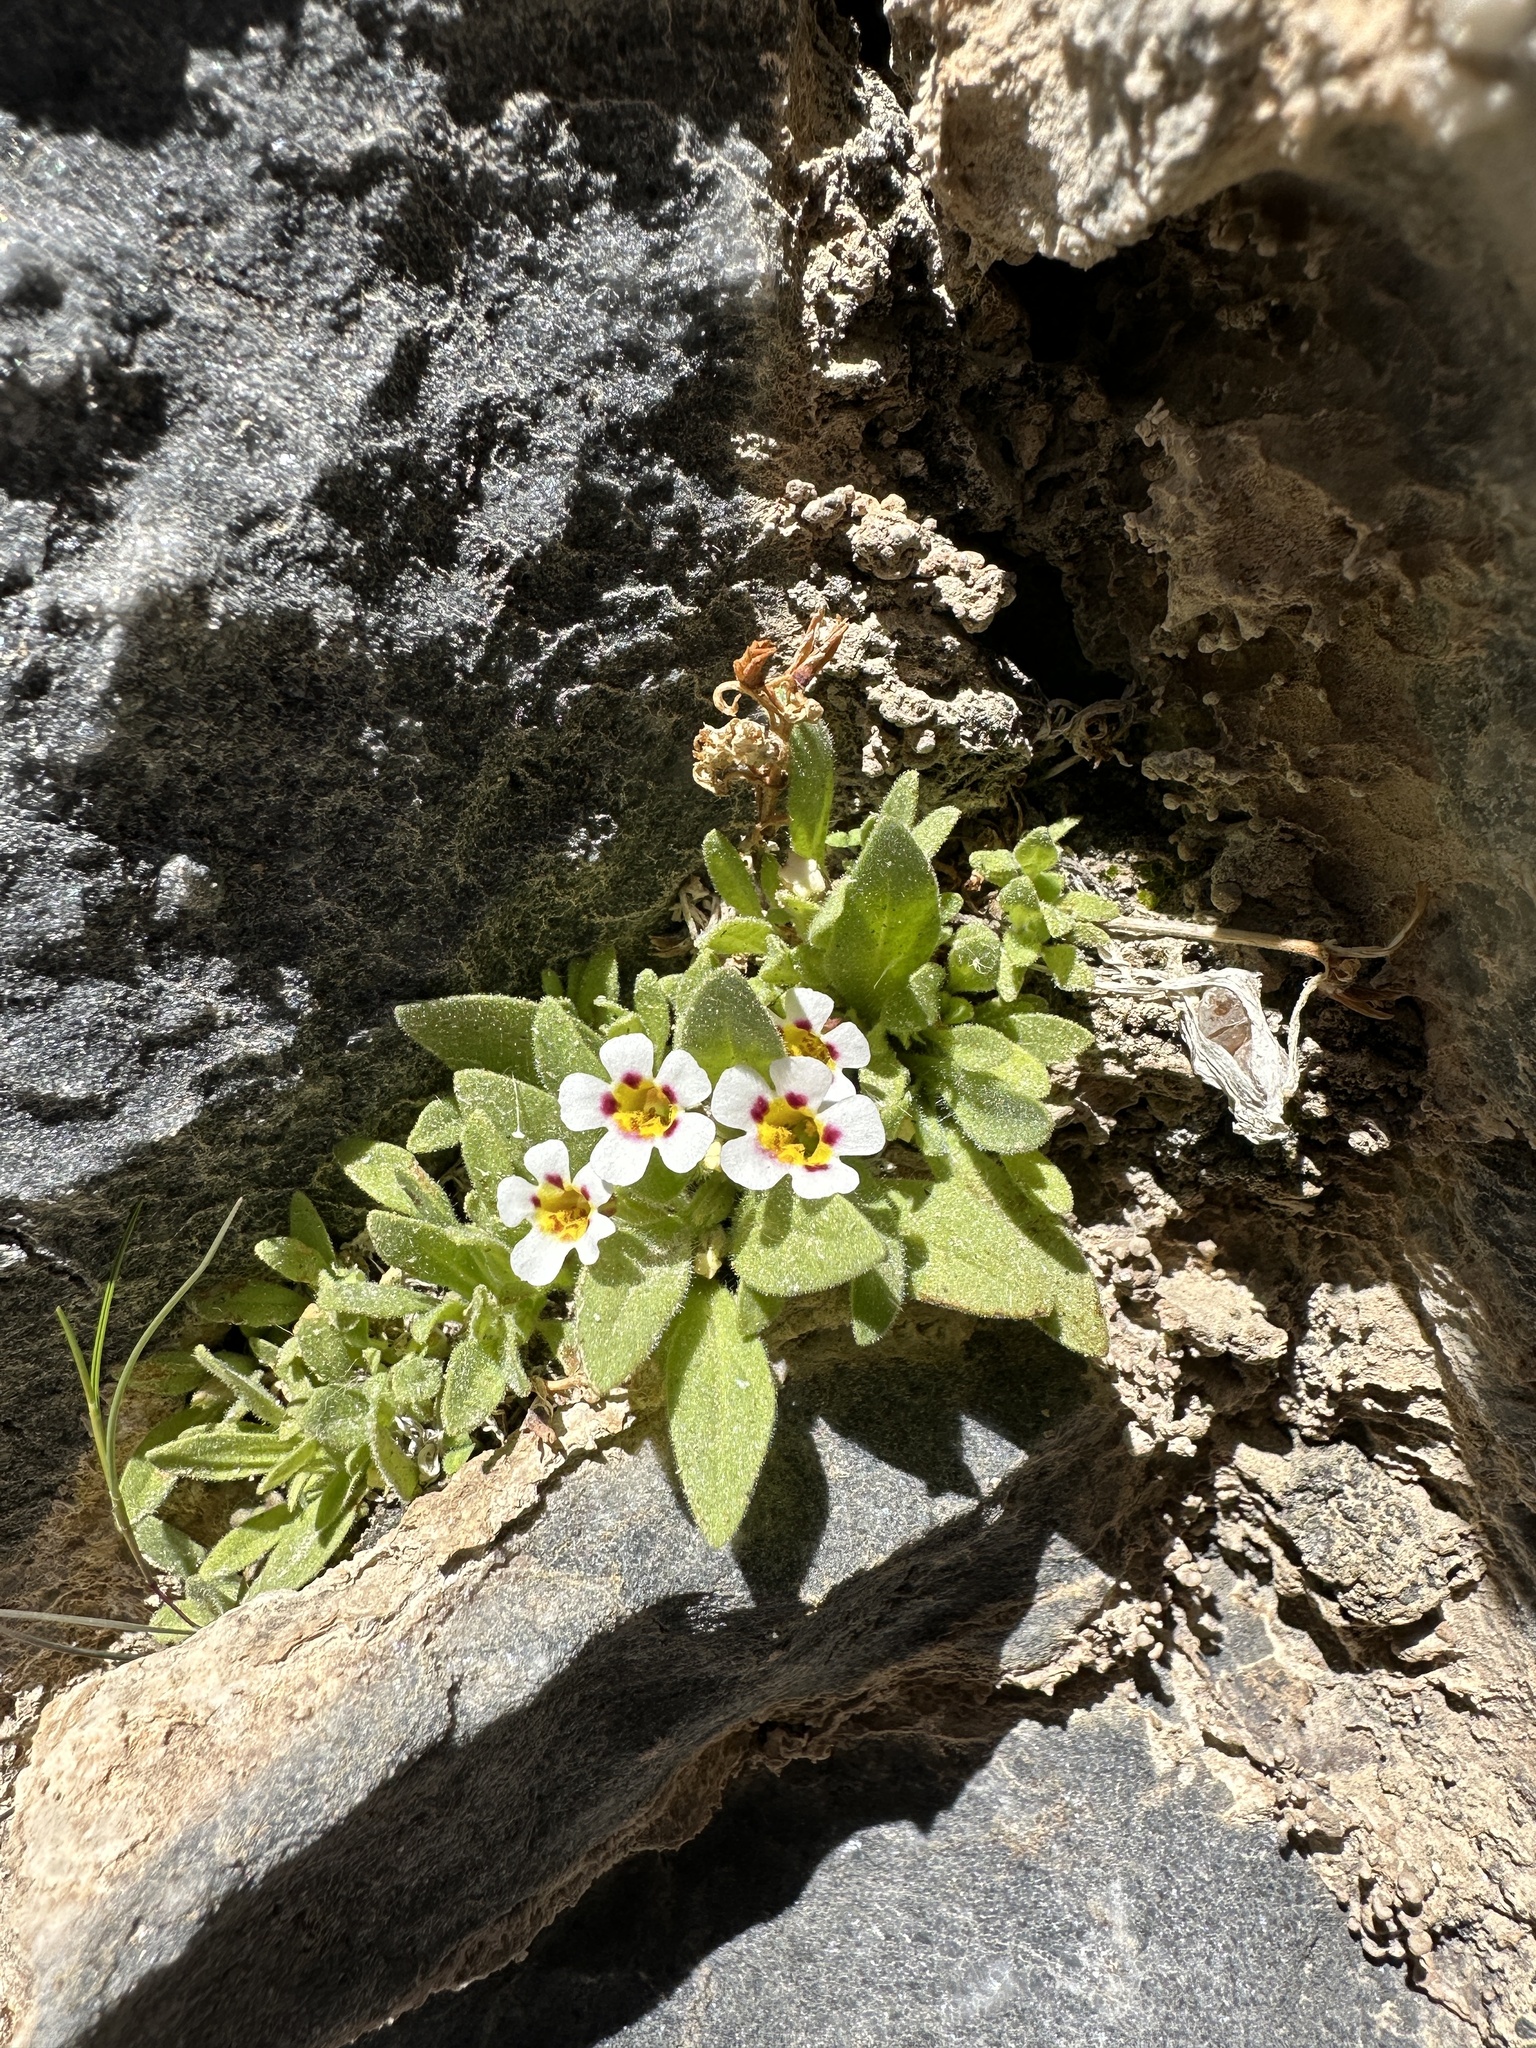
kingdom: Plantae
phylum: Tracheophyta
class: Magnoliopsida
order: Lamiales
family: Phrymaceae
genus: Diplacus
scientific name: Diplacus rupicola
